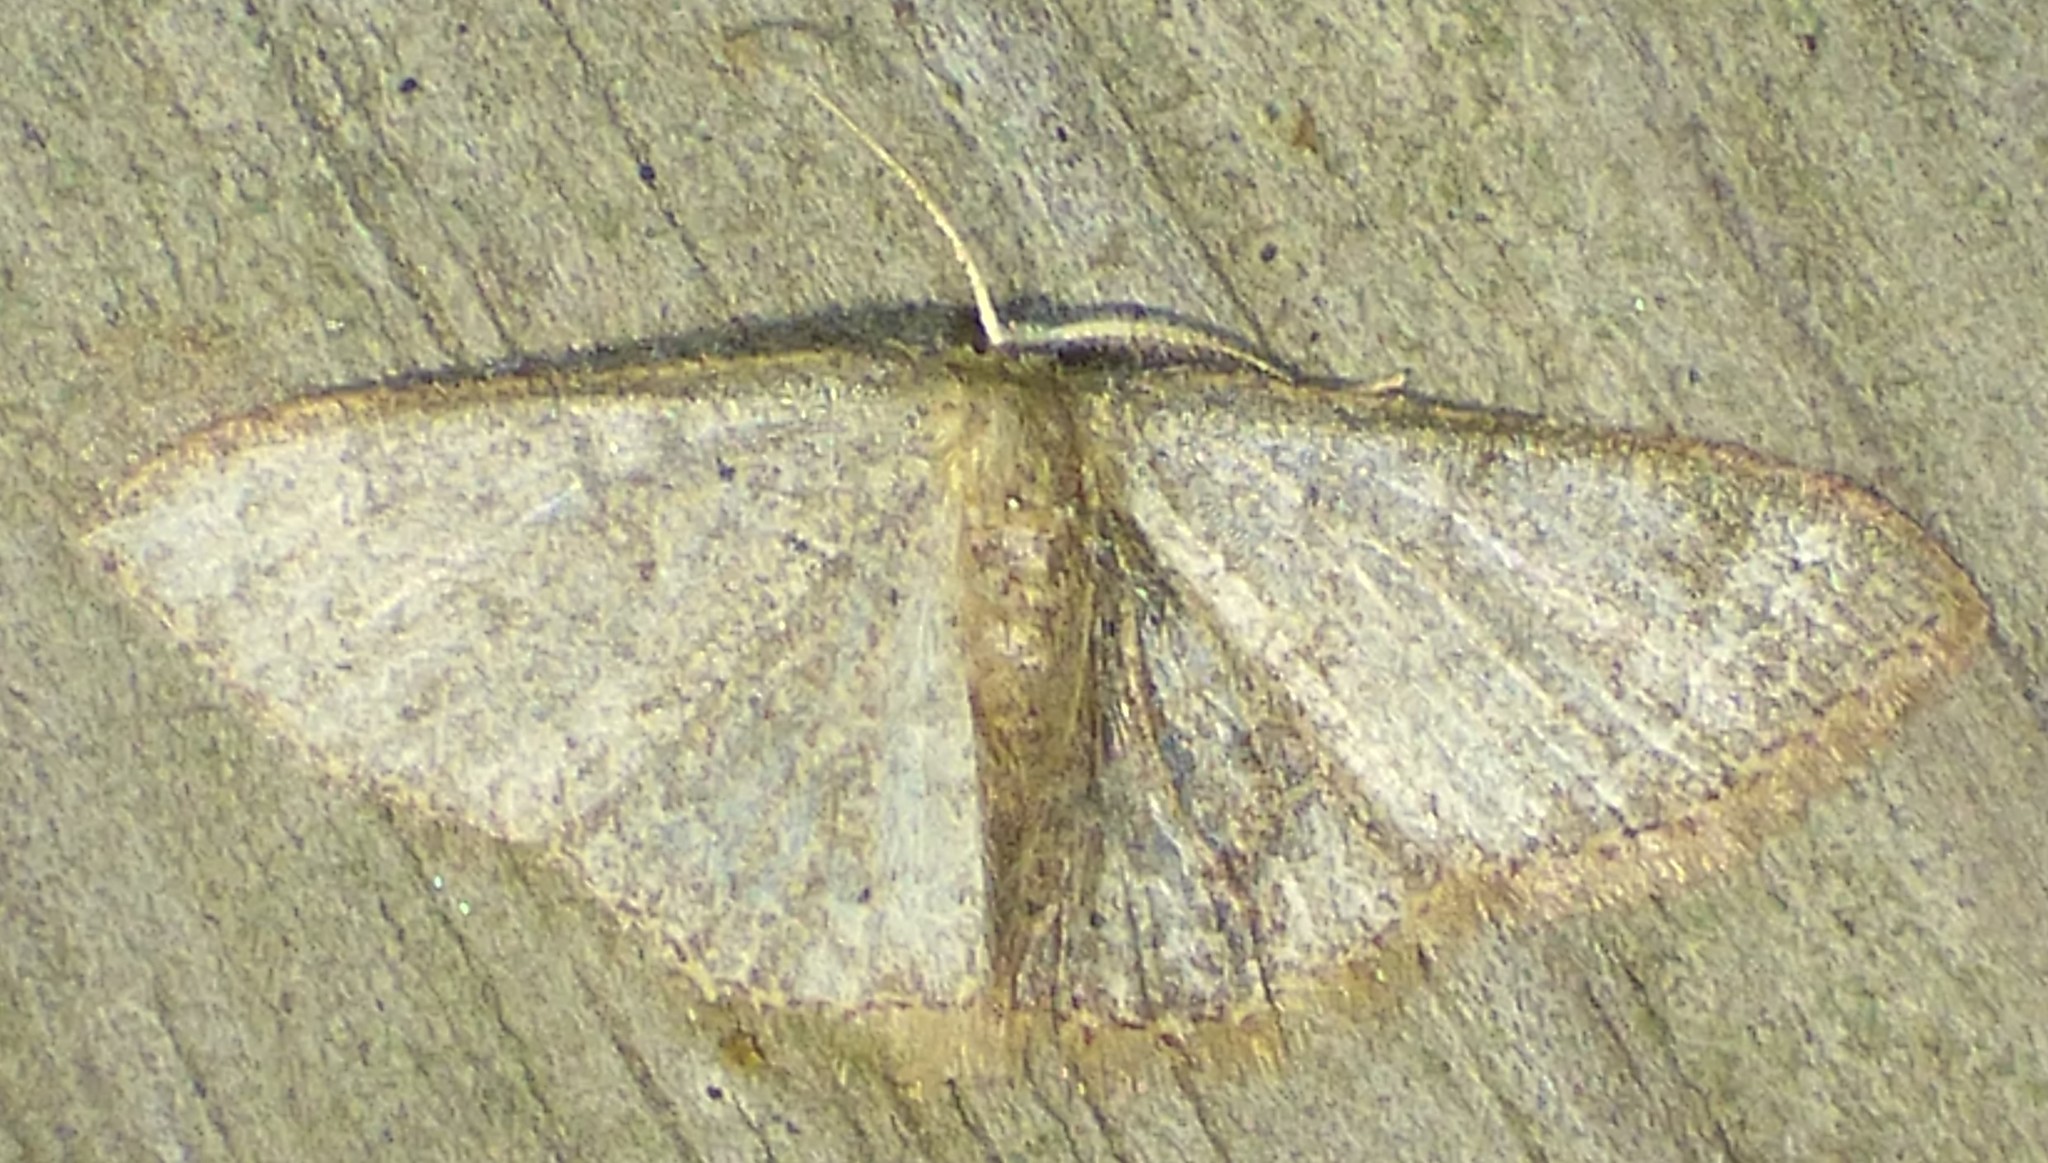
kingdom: Animalia
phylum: Arthropoda
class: Insecta
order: Lepidoptera
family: Geometridae
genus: Pleuroprucha
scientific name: Pleuroprucha insulsaria
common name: Common tan wave
